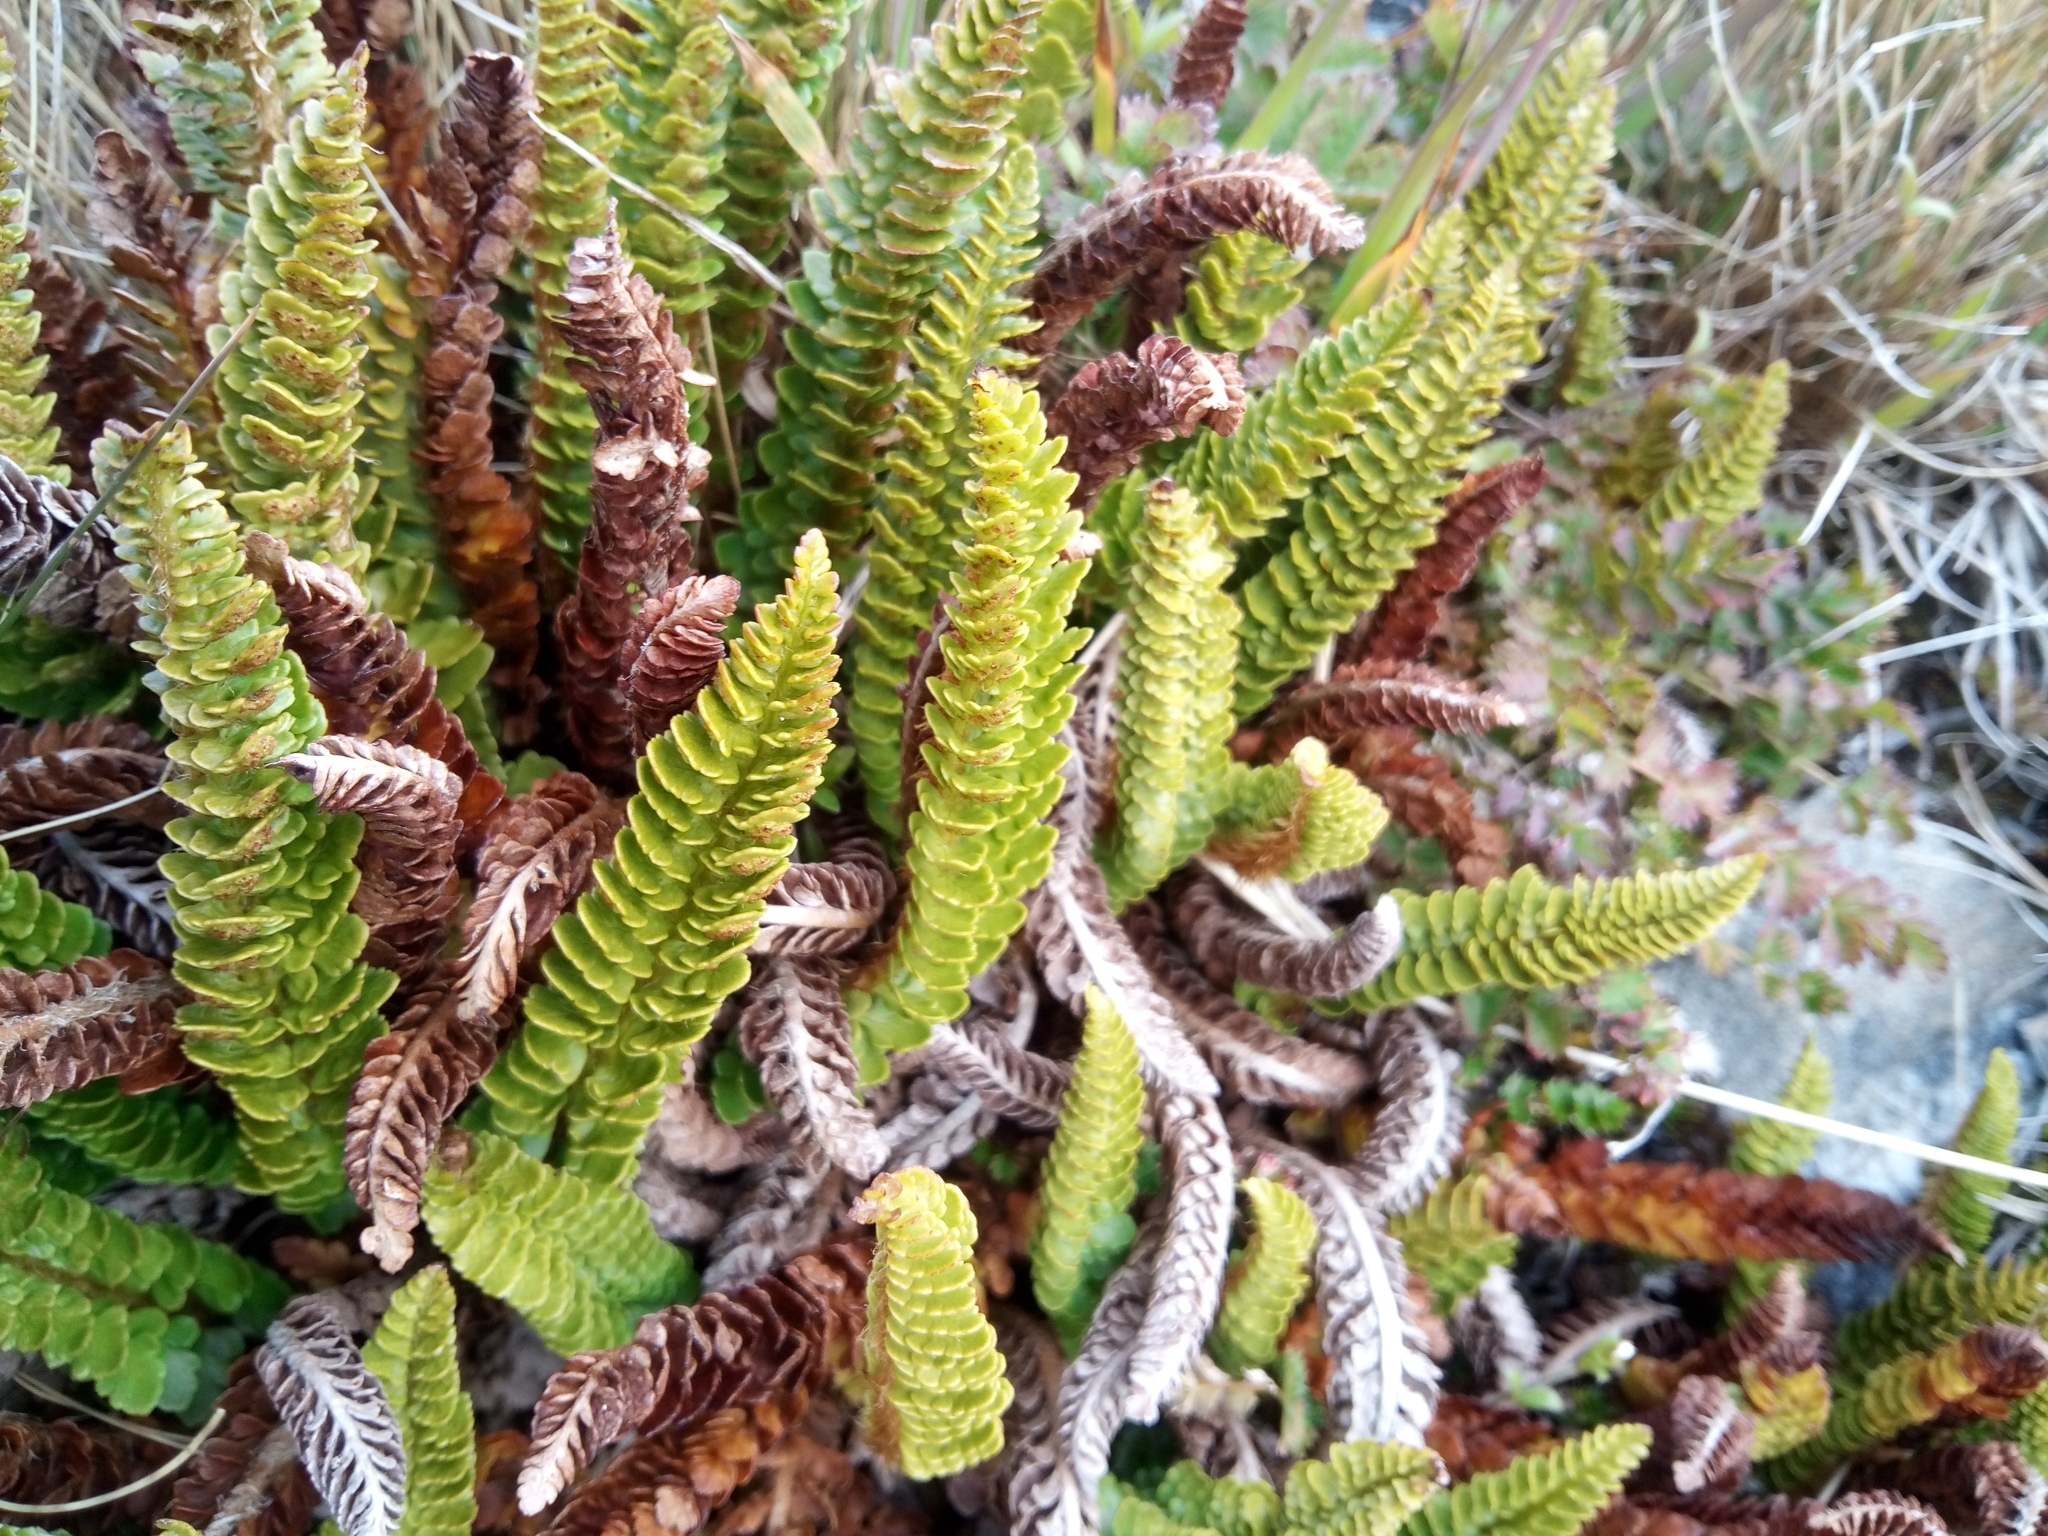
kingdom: Plantae
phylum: Tracheophyta
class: Polypodiopsida
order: Polypodiales
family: Dryopteridaceae
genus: Polystichum
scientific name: Polystichum mohrioides
